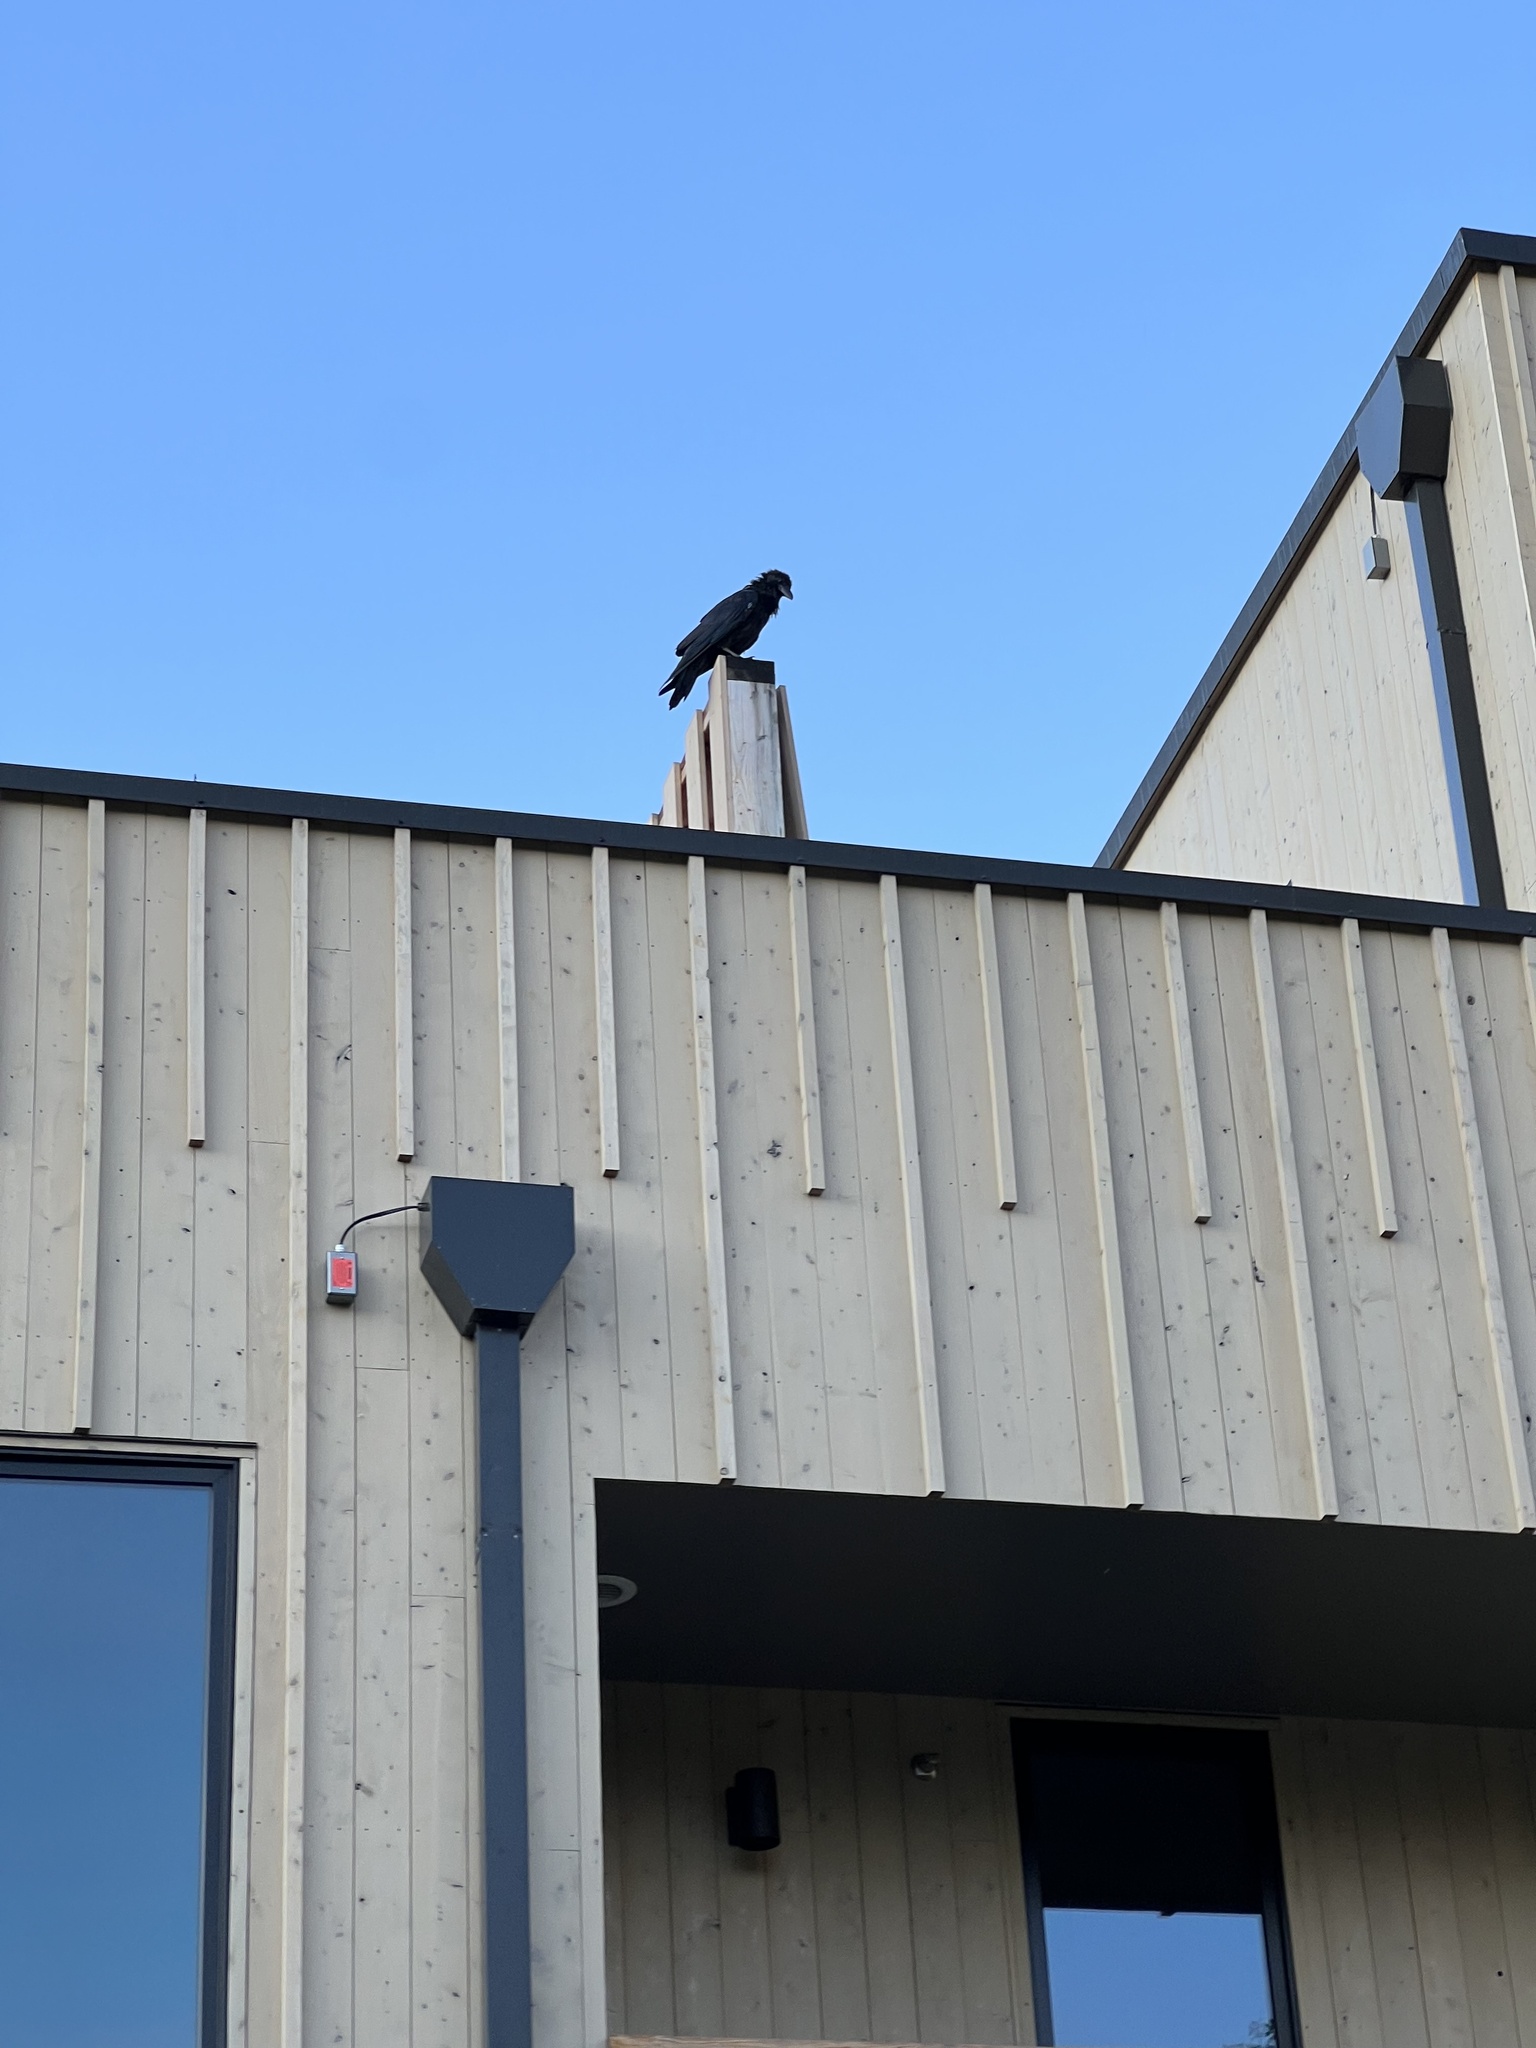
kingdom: Animalia
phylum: Chordata
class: Aves
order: Passeriformes
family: Corvidae
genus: Corvus
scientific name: Corvus corax
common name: Common raven
